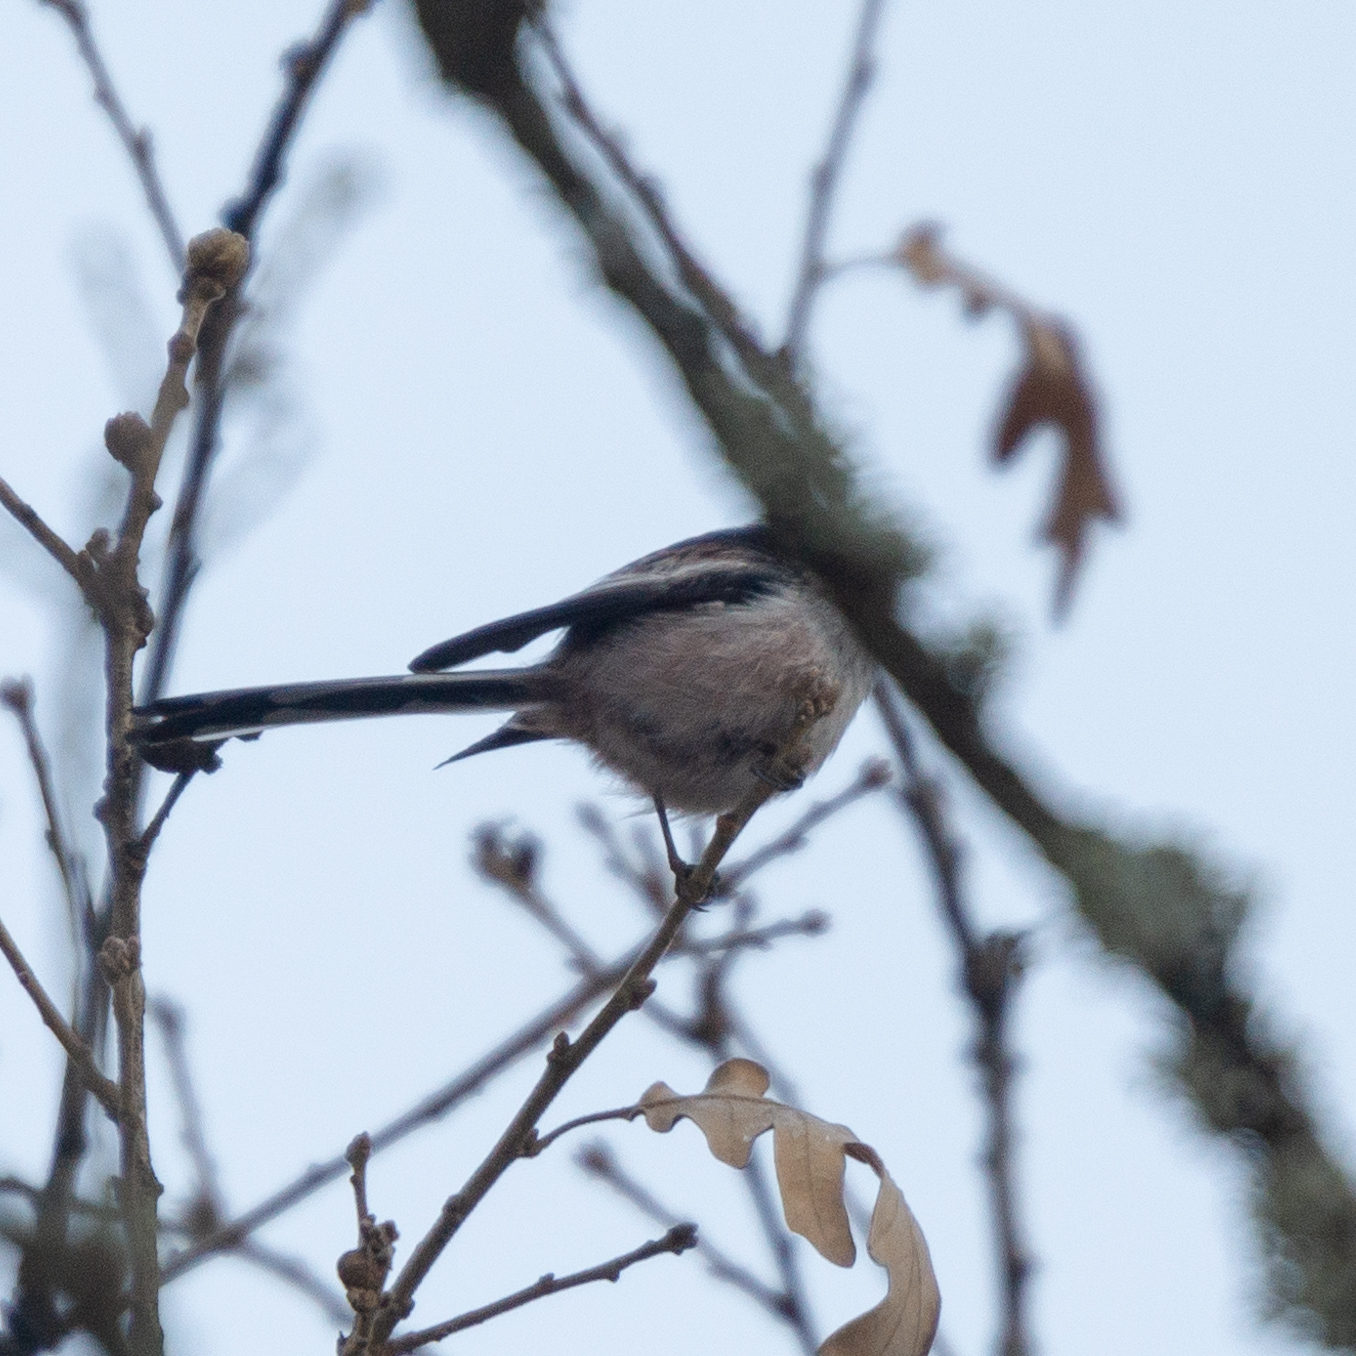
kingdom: Animalia
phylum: Chordata
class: Aves
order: Passeriformes
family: Aegithalidae
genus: Aegithalos
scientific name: Aegithalos caudatus
